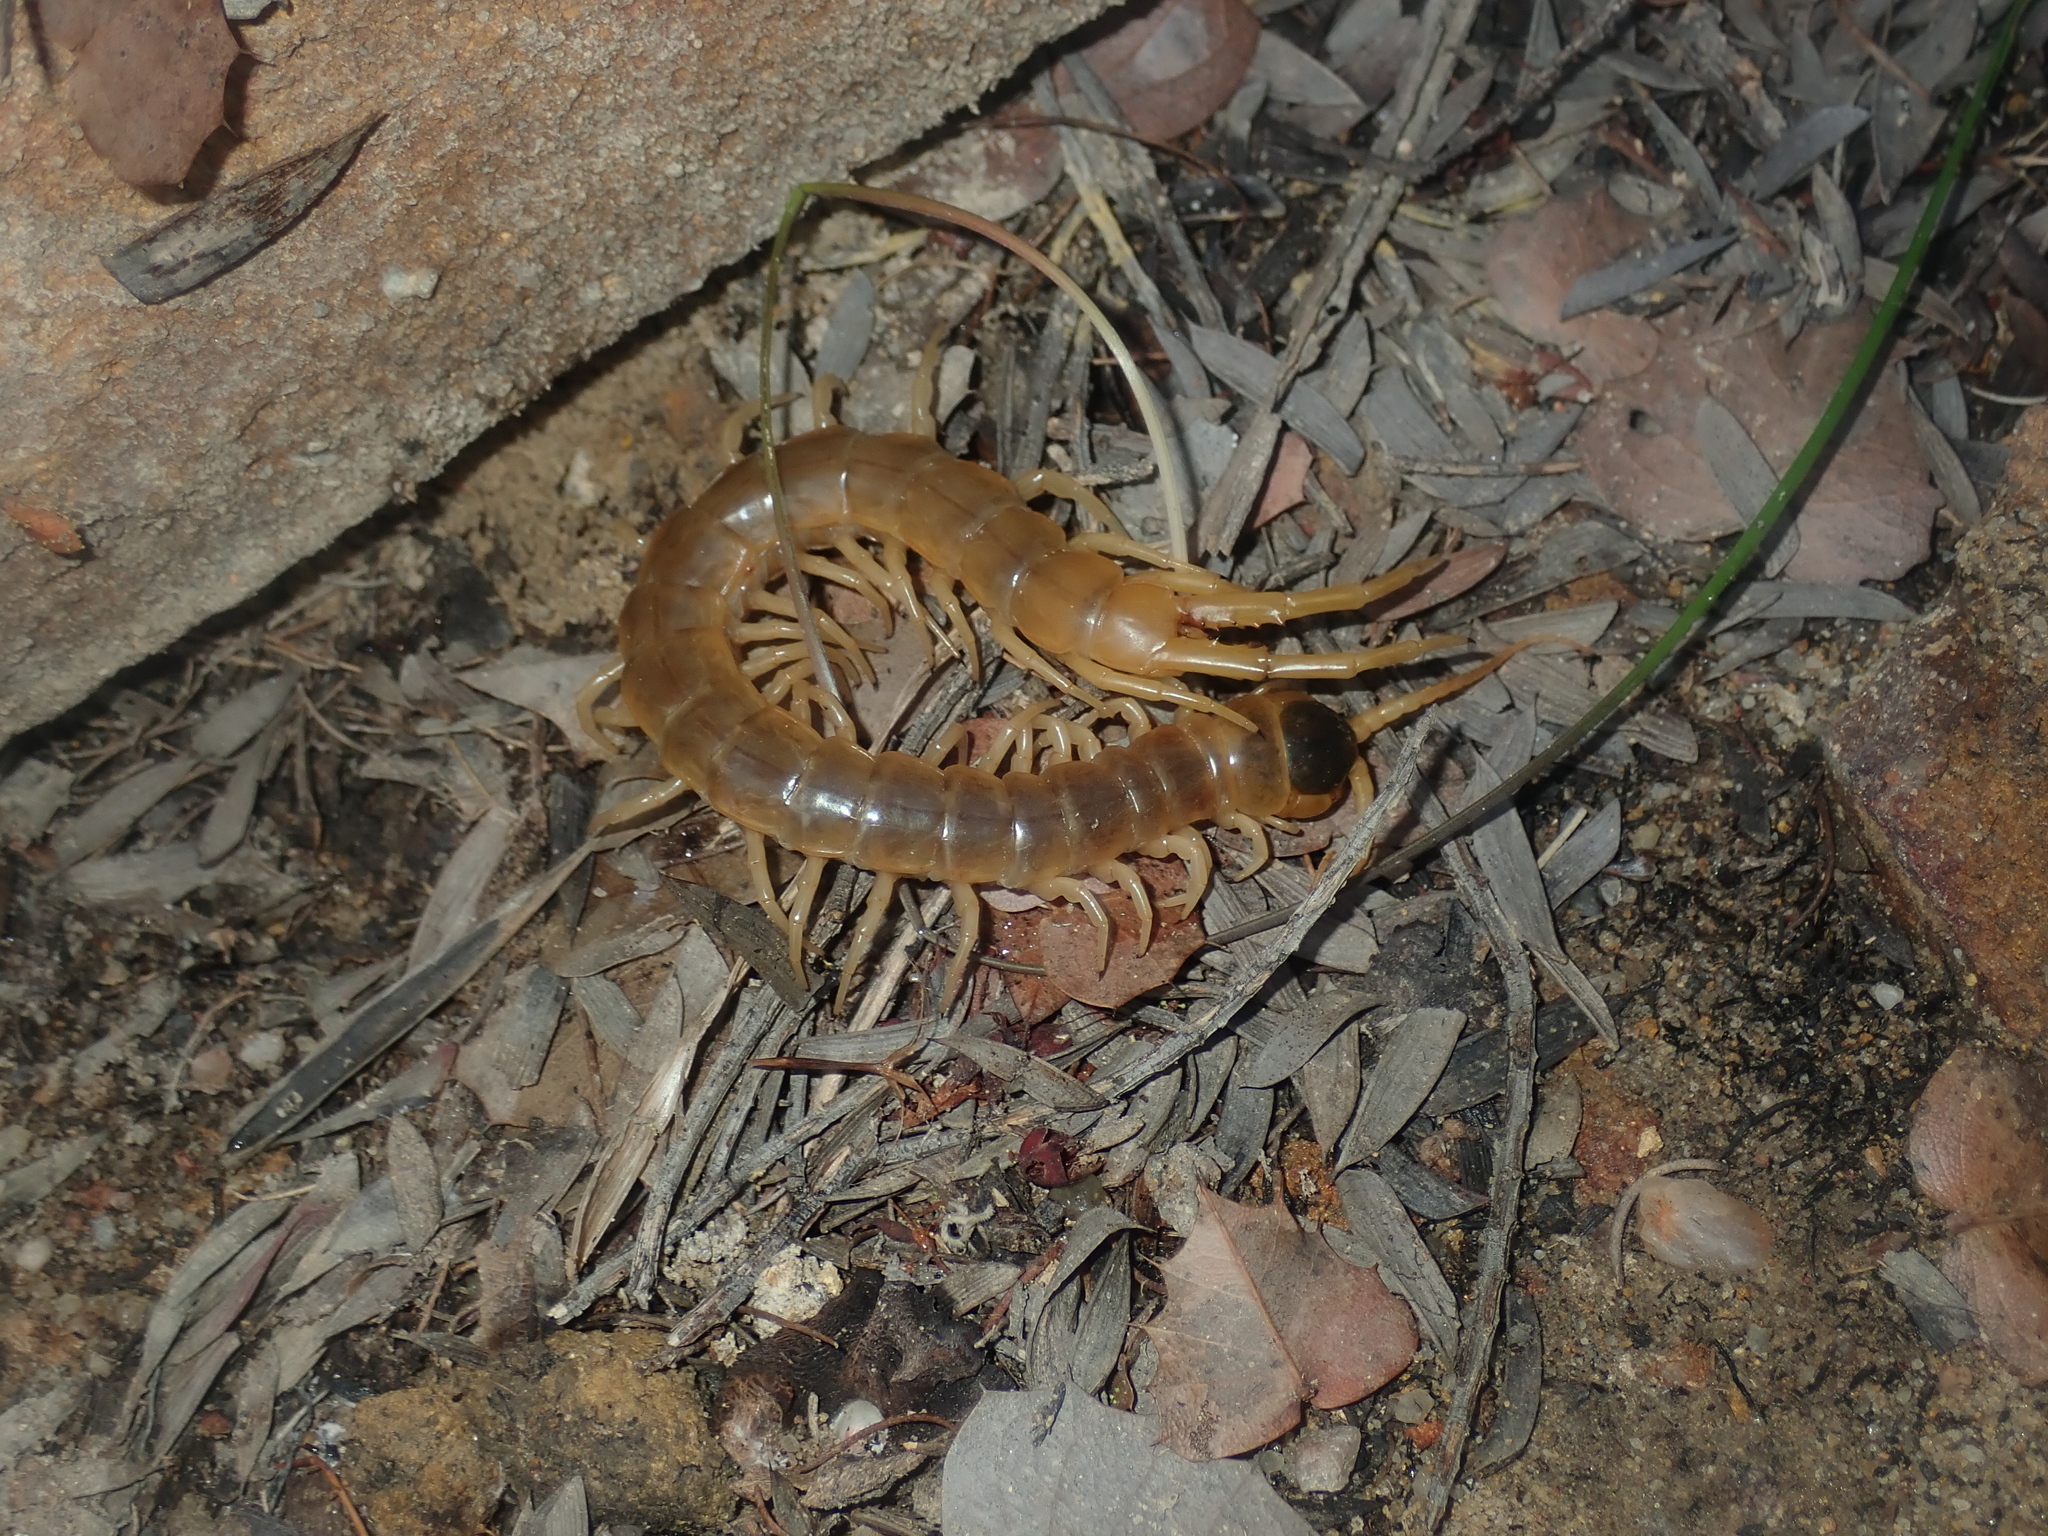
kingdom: Animalia
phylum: Arthropoda
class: Chilopoda
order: Scolopendromorpha
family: Scolopendridae
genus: Ethmostigmus
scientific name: Ethmostigmus rubripes
